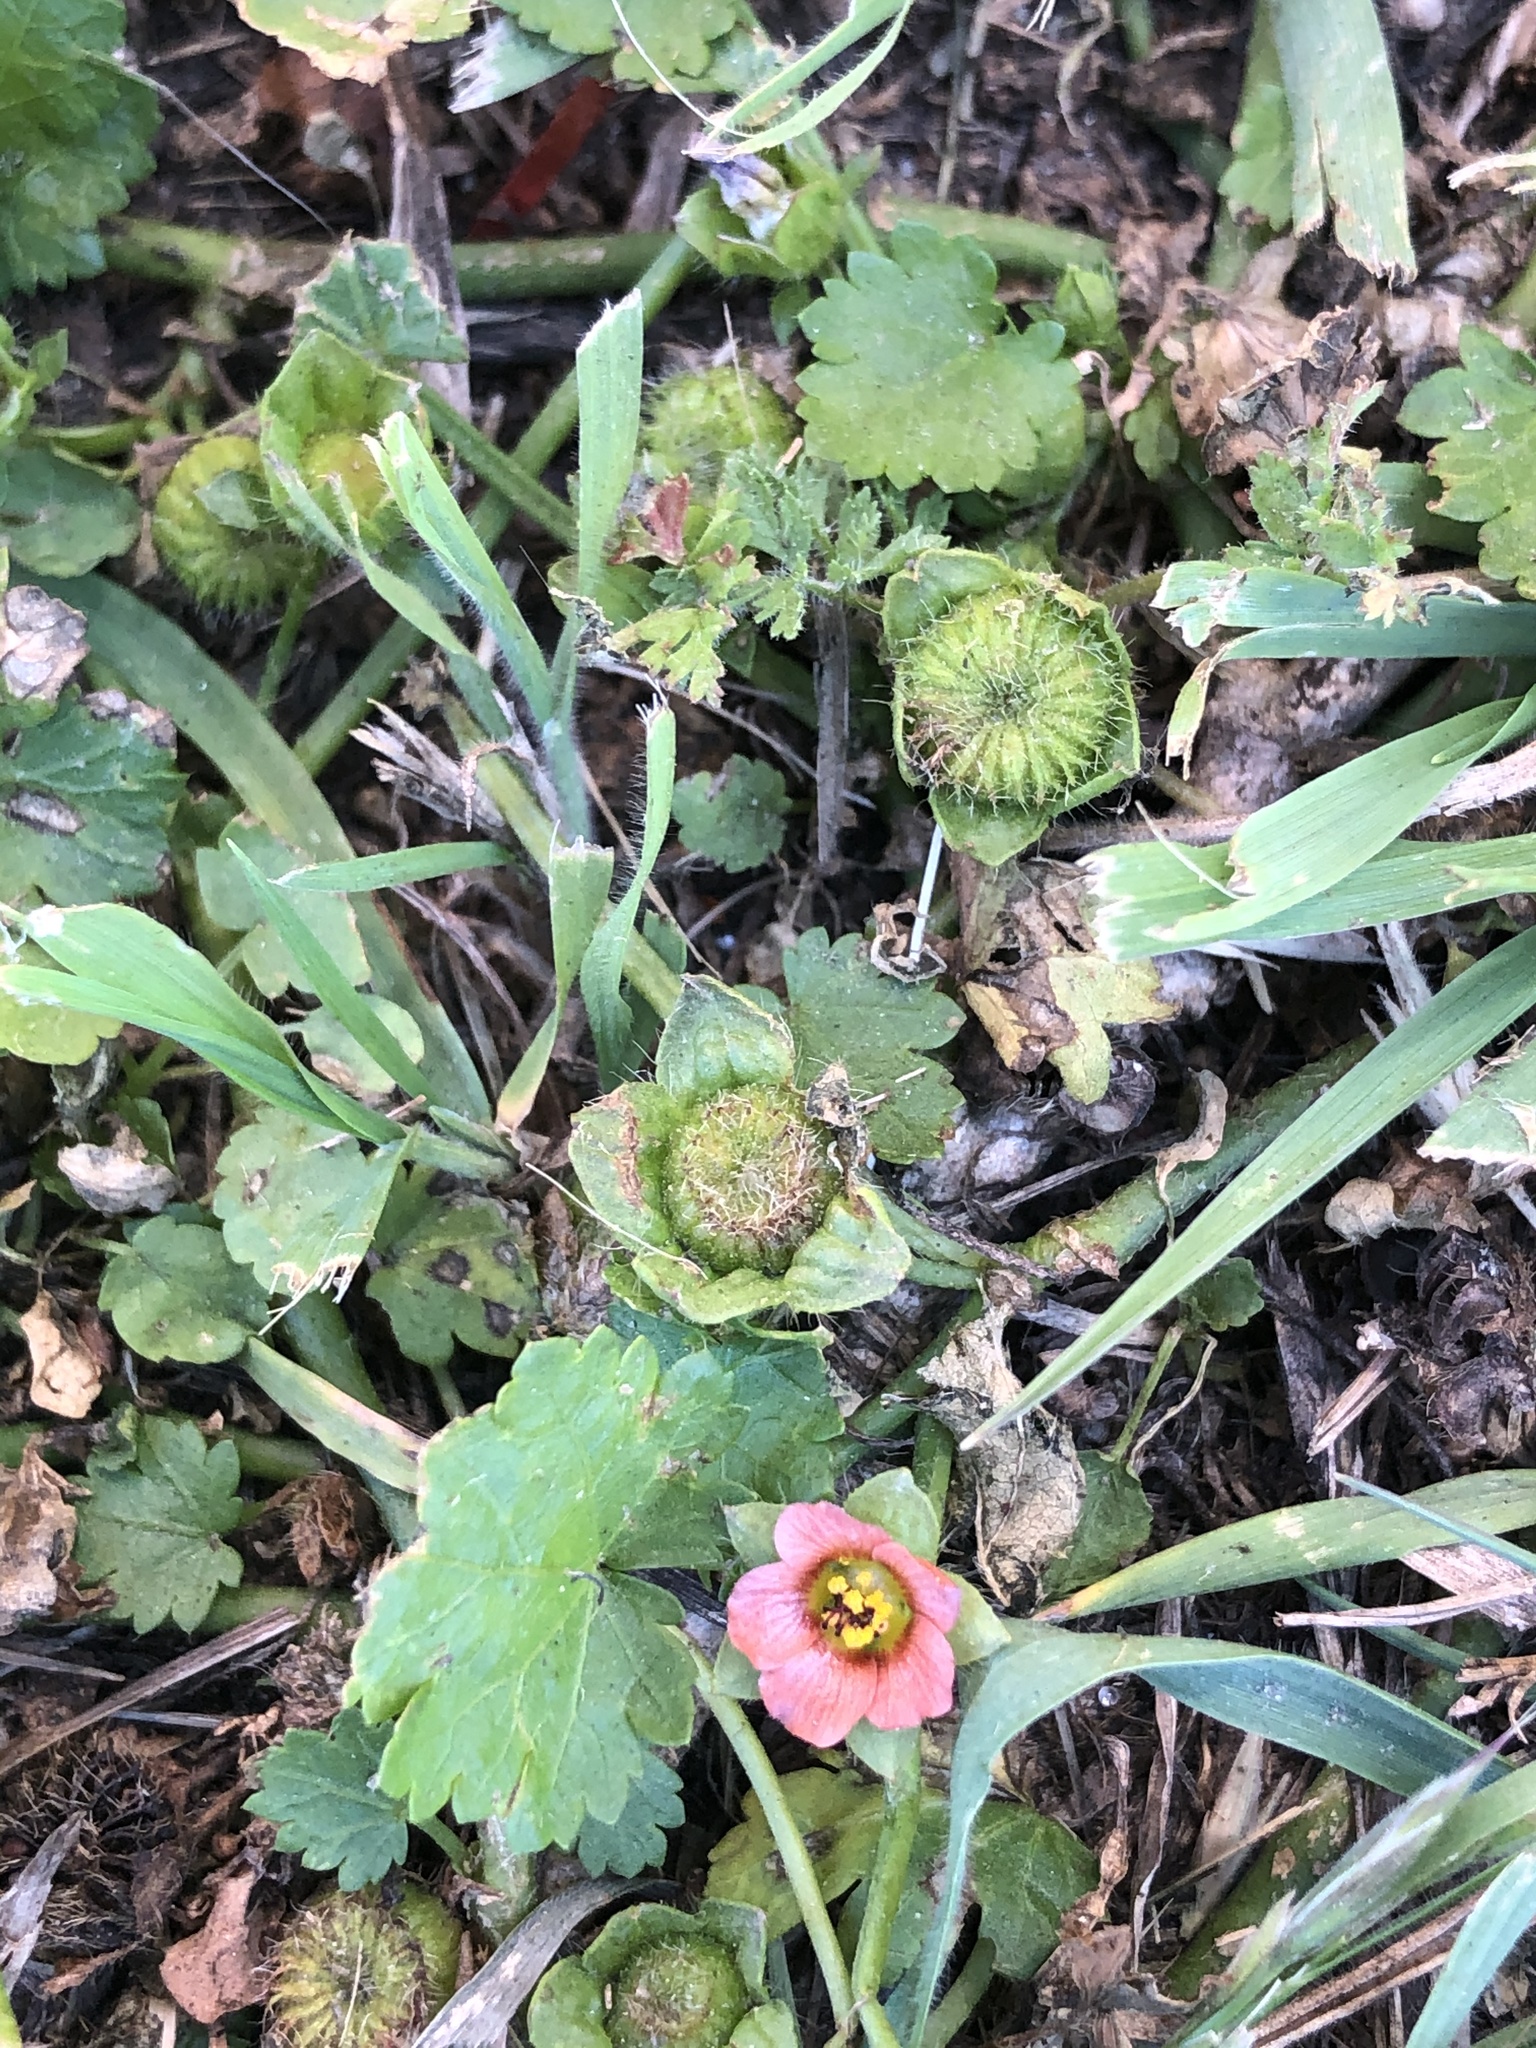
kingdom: Plantae
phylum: Tracheophyta
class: Magnoliopsida
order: Malvales
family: Malvaceae
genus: Modiola
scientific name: Modiola caroliniana
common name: Carolina bristlemallow
